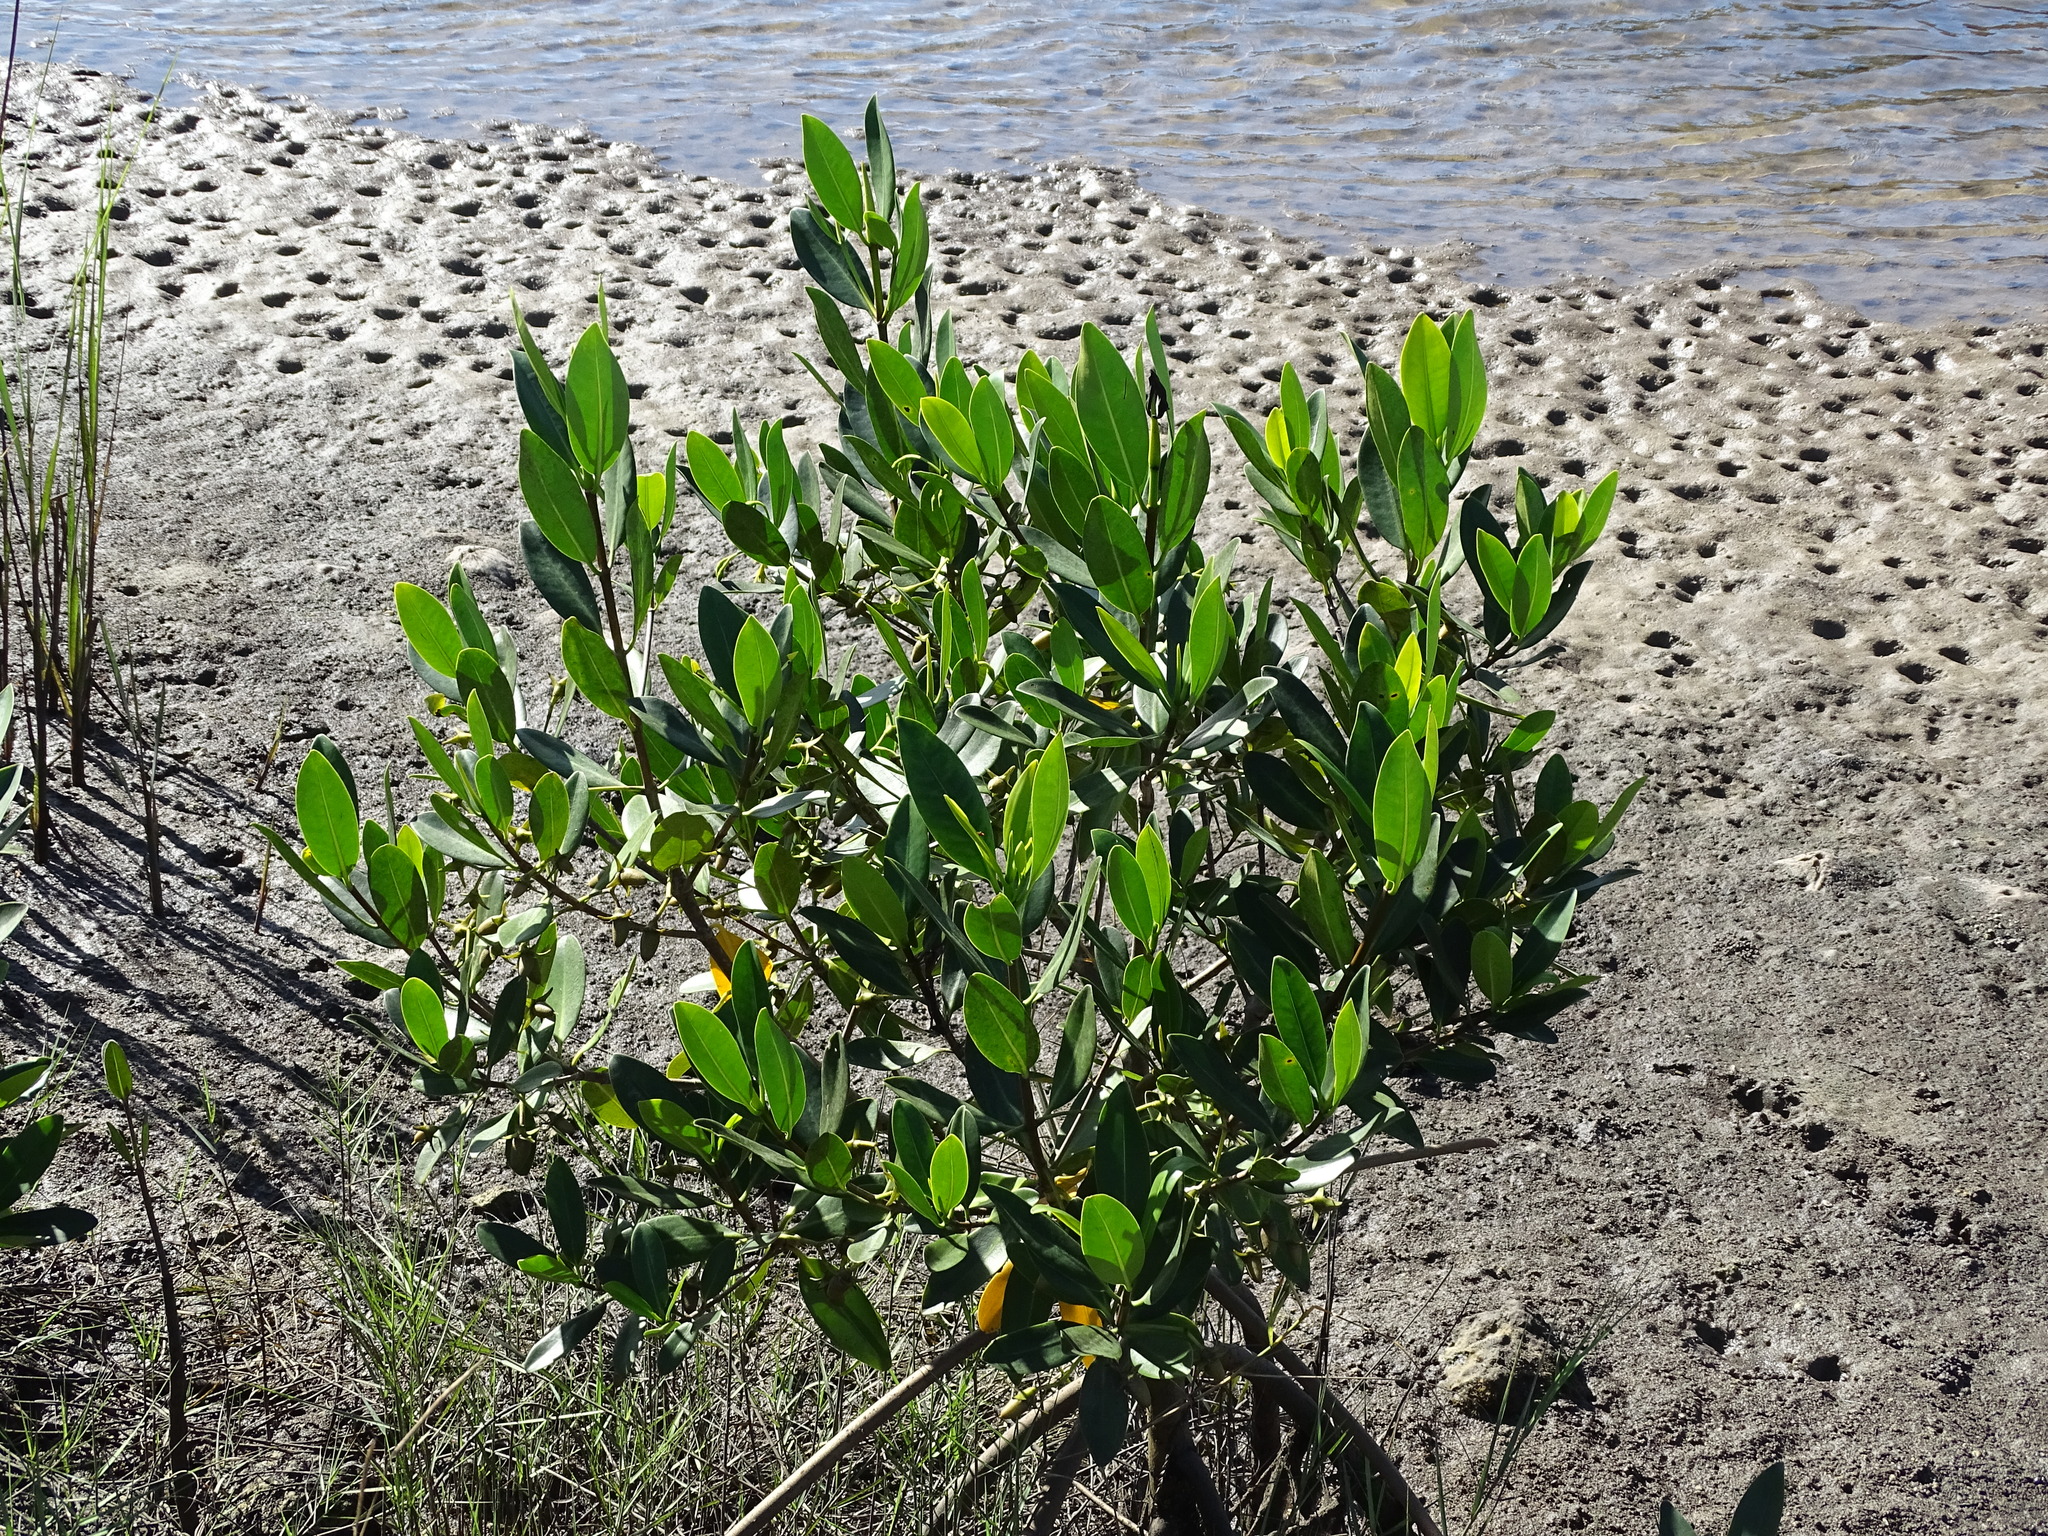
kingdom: Plantae
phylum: Tracheophyta
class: Magnoliopsida
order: Malpighiales
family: Rhizophoraceae
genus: Rhizophora
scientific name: Rhizophora mangle
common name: Red mangrove
